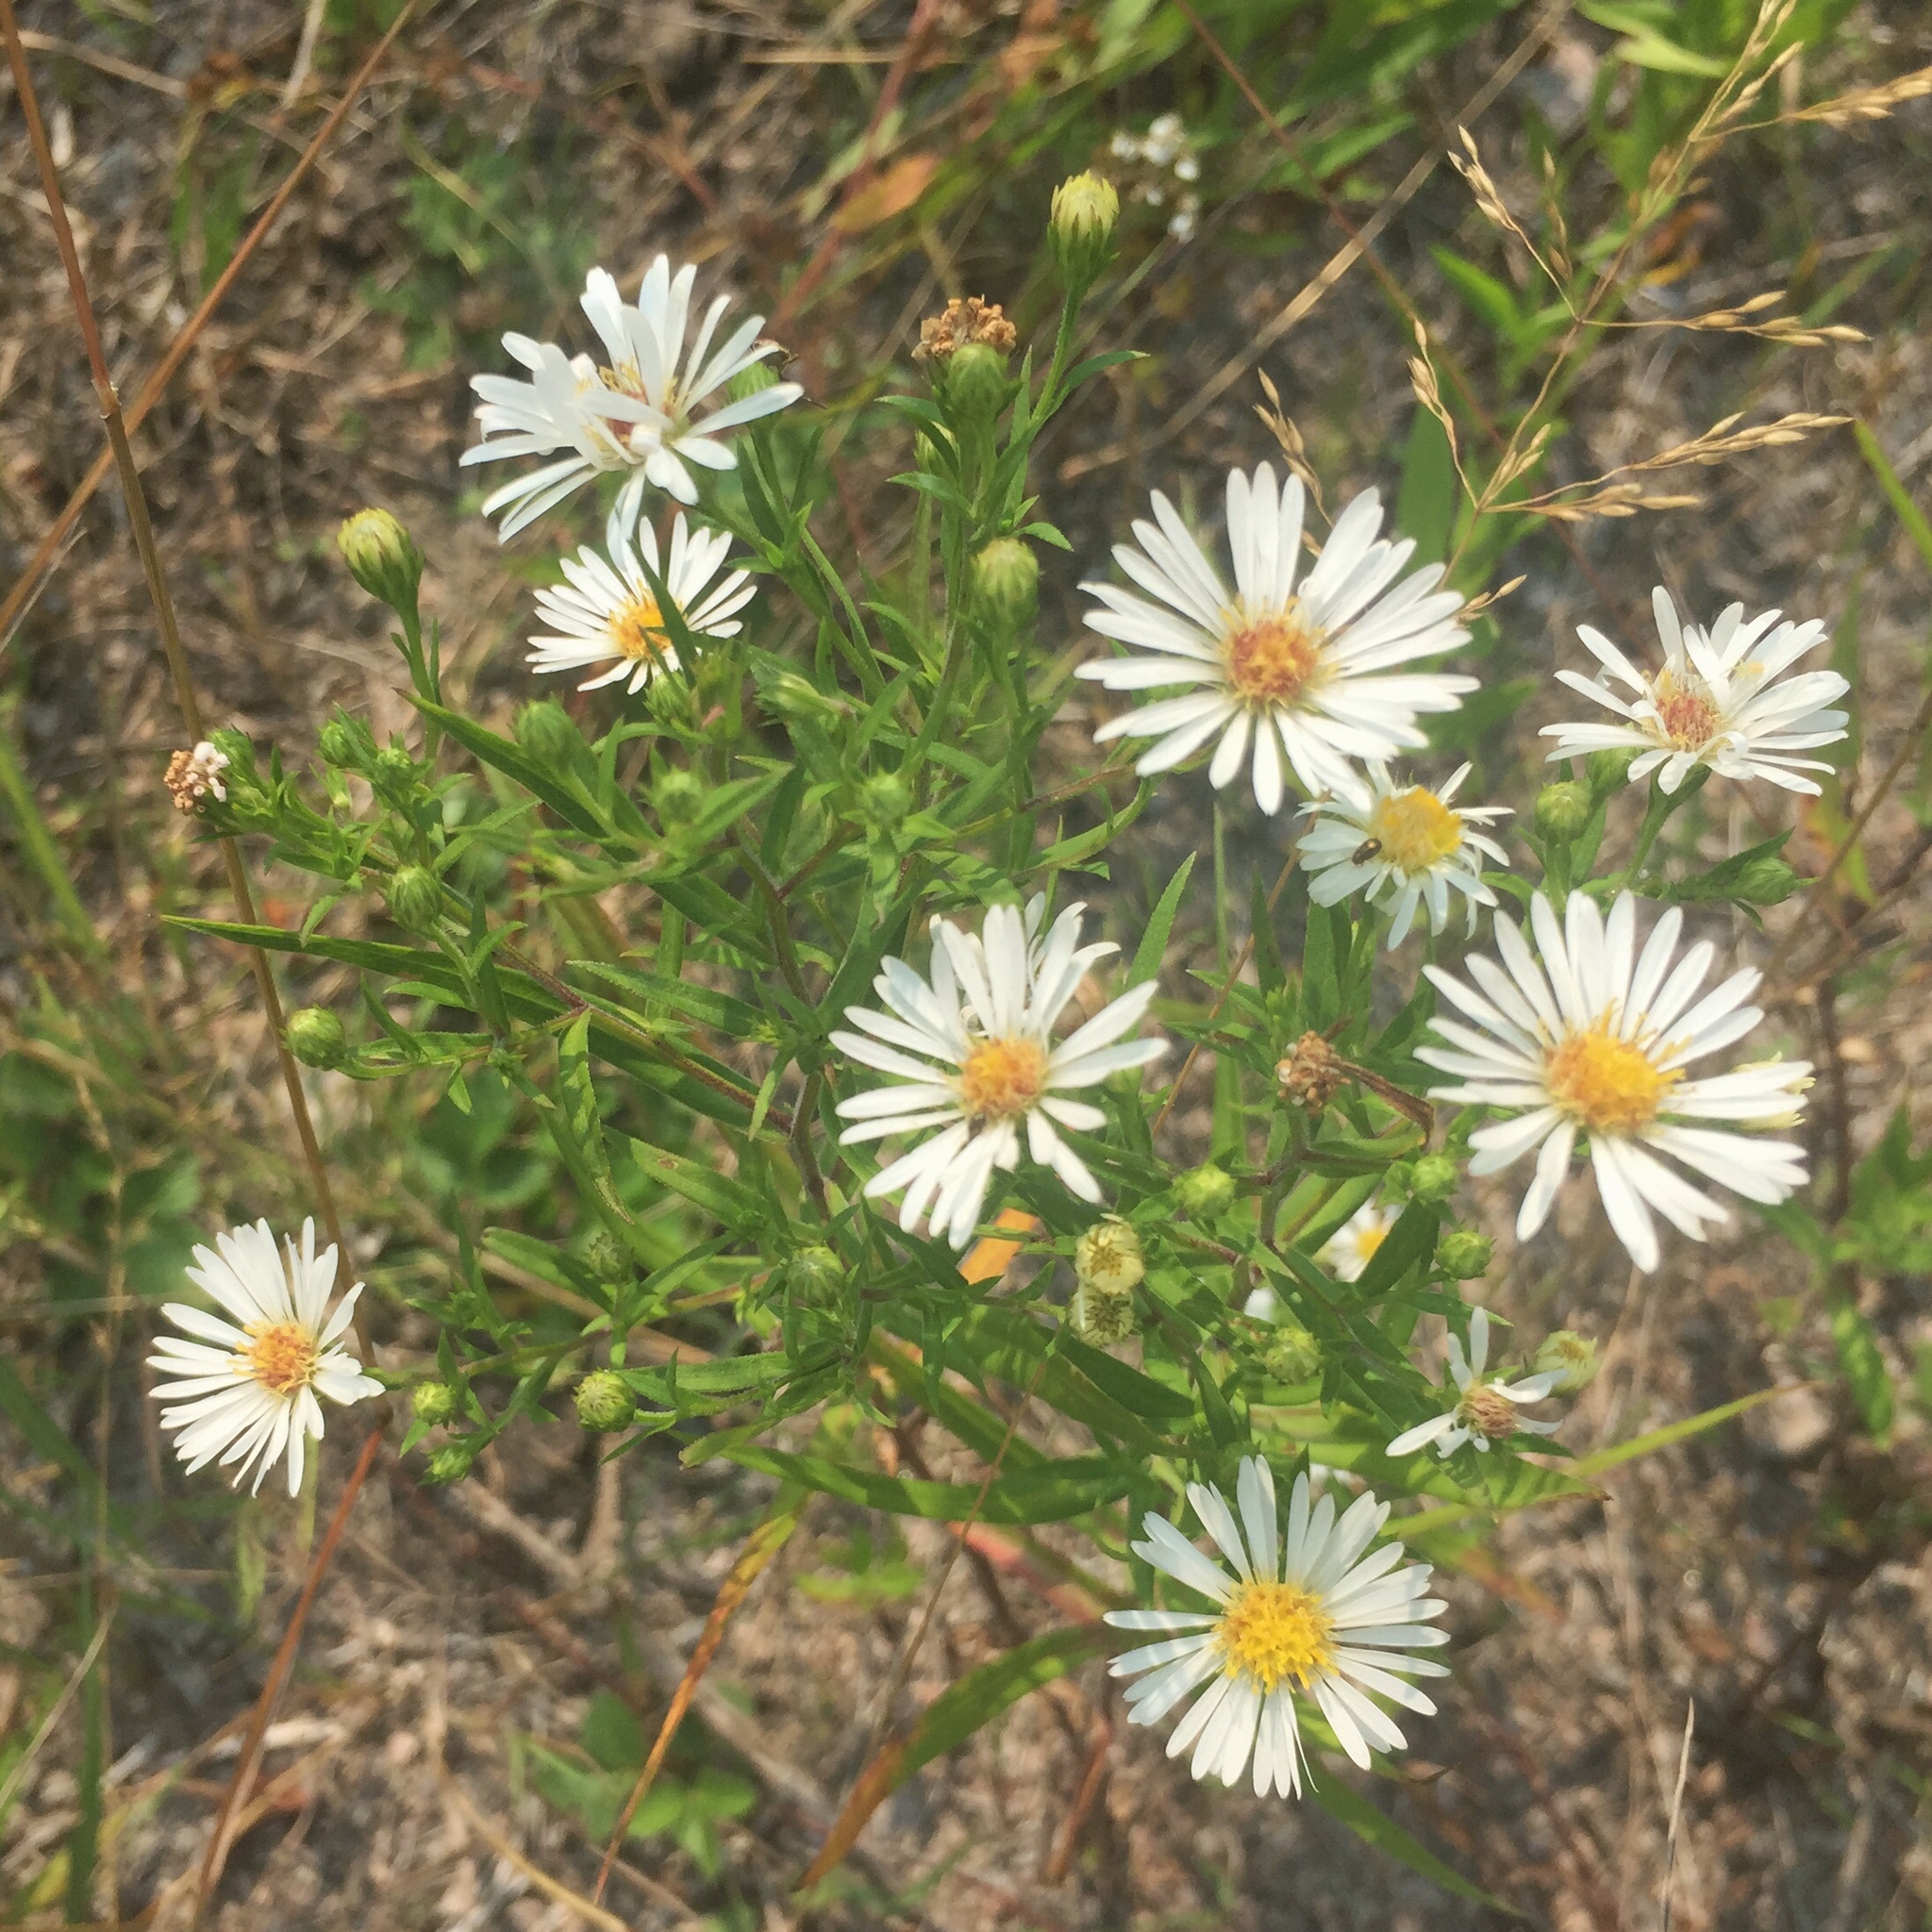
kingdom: Plantae
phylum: Tracheophyta
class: Magnoliopsida
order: Asterales
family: Asteraceae
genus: Symphyotrichum
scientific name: Symphyotrichum ericoides
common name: Heath aster
